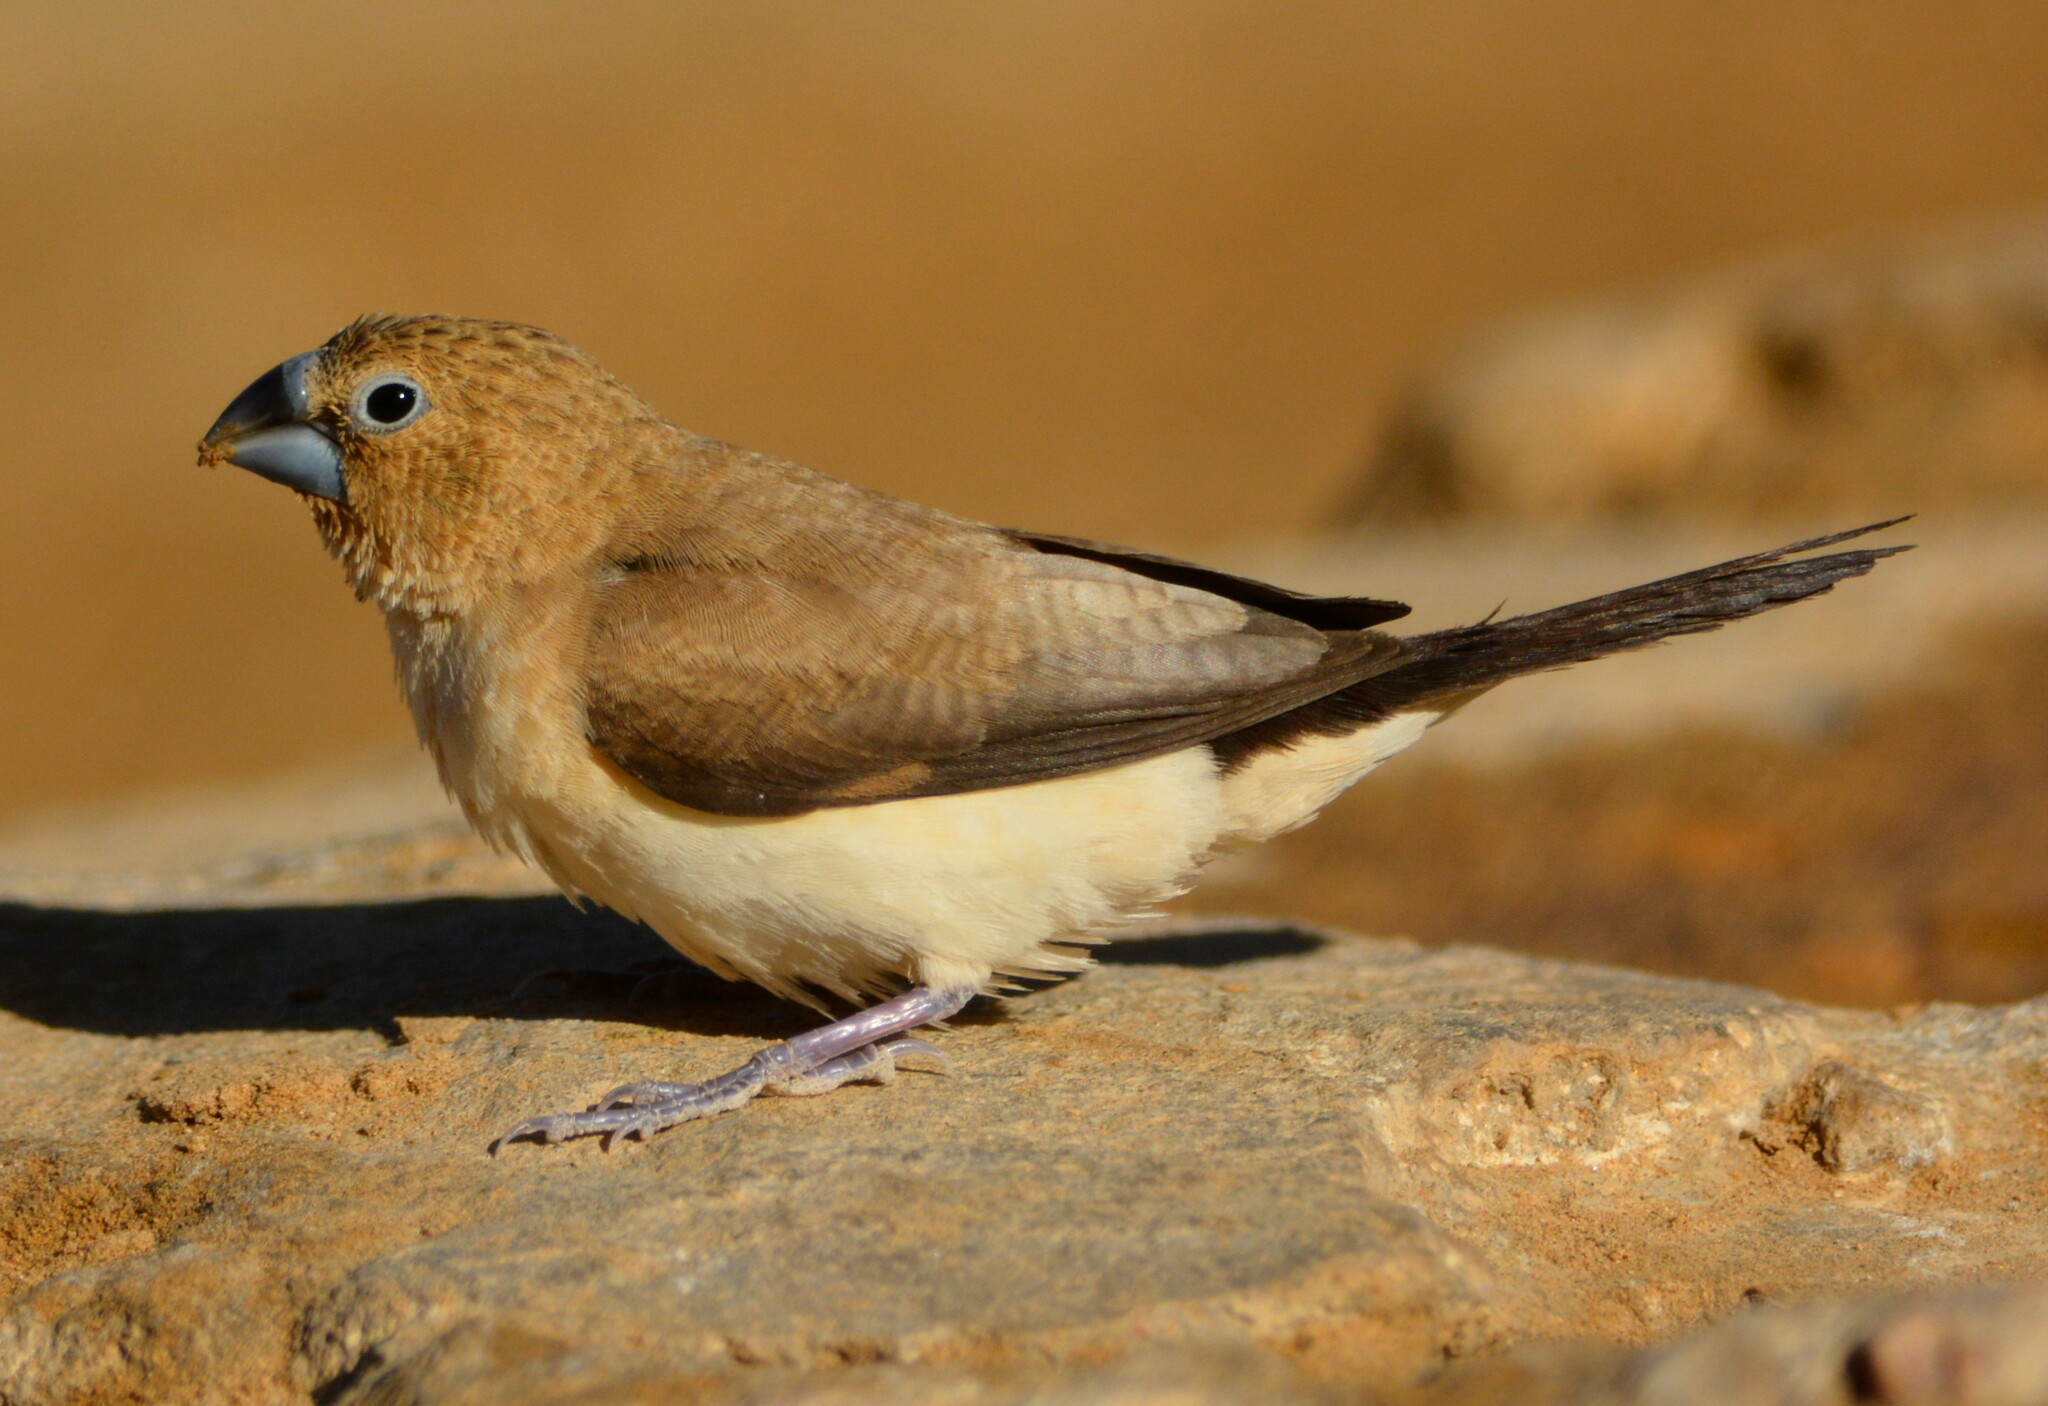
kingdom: Animalia
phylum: Chordata
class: Aves
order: Passeriformes
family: Estrildidae
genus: Euodice
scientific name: Euodice cantans
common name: African silverbill
